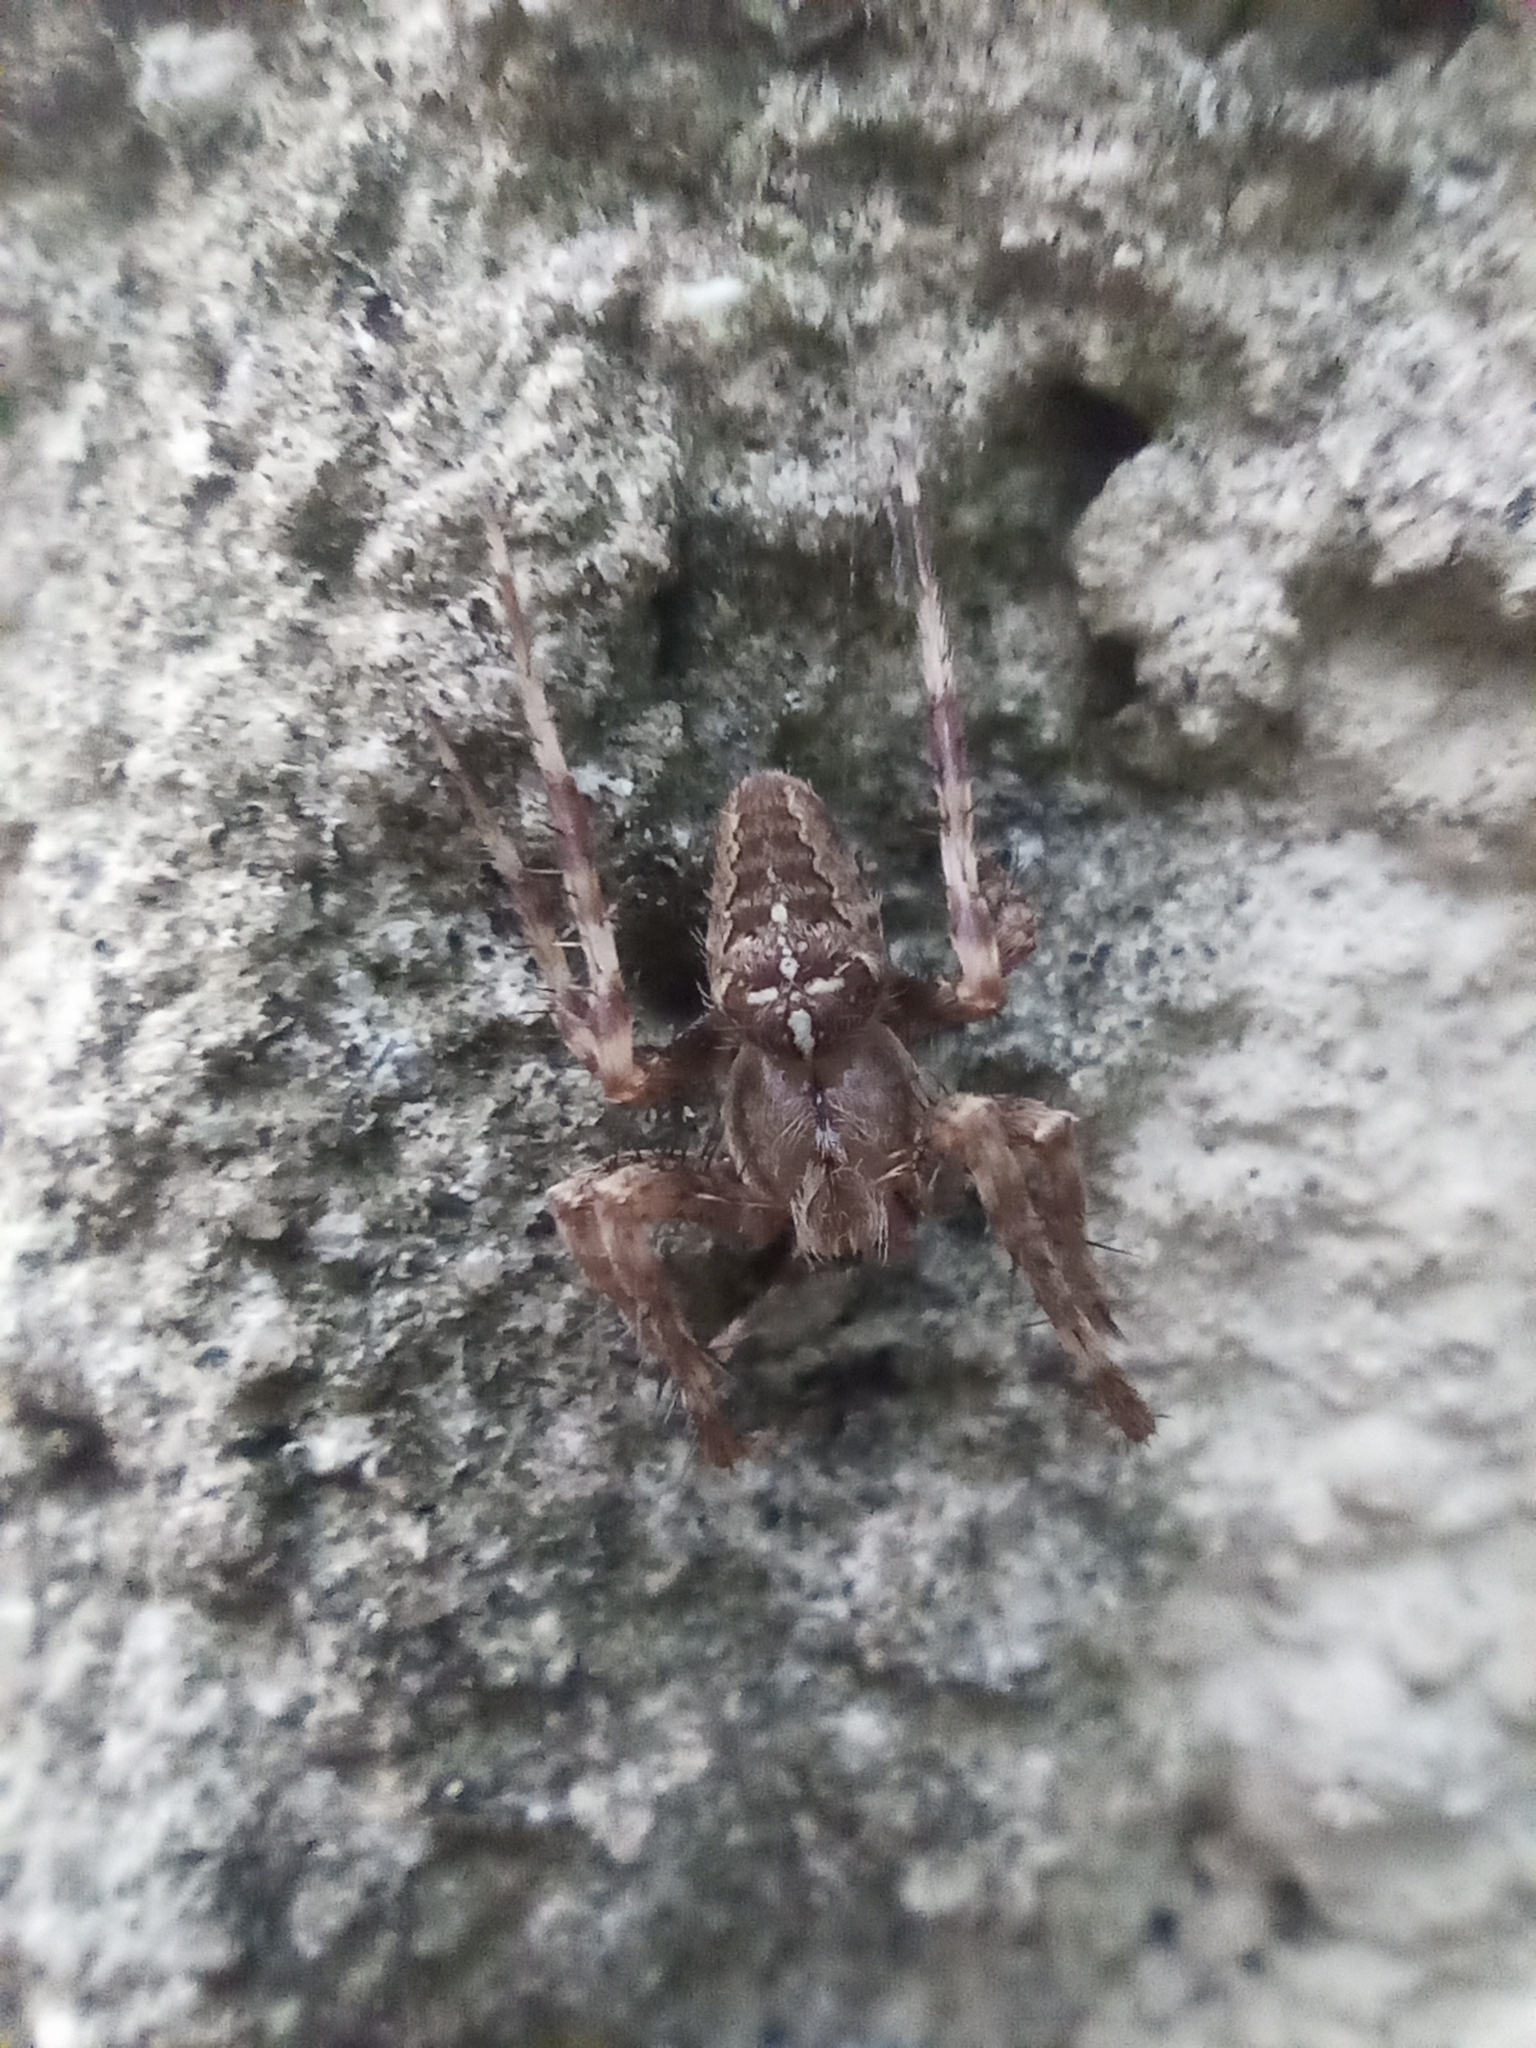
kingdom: Animalia
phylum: Arthropoda
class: Arachnida
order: Araneae
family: Araneidae
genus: Araneus
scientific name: Araneus diadematus
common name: Cross orbweaver
